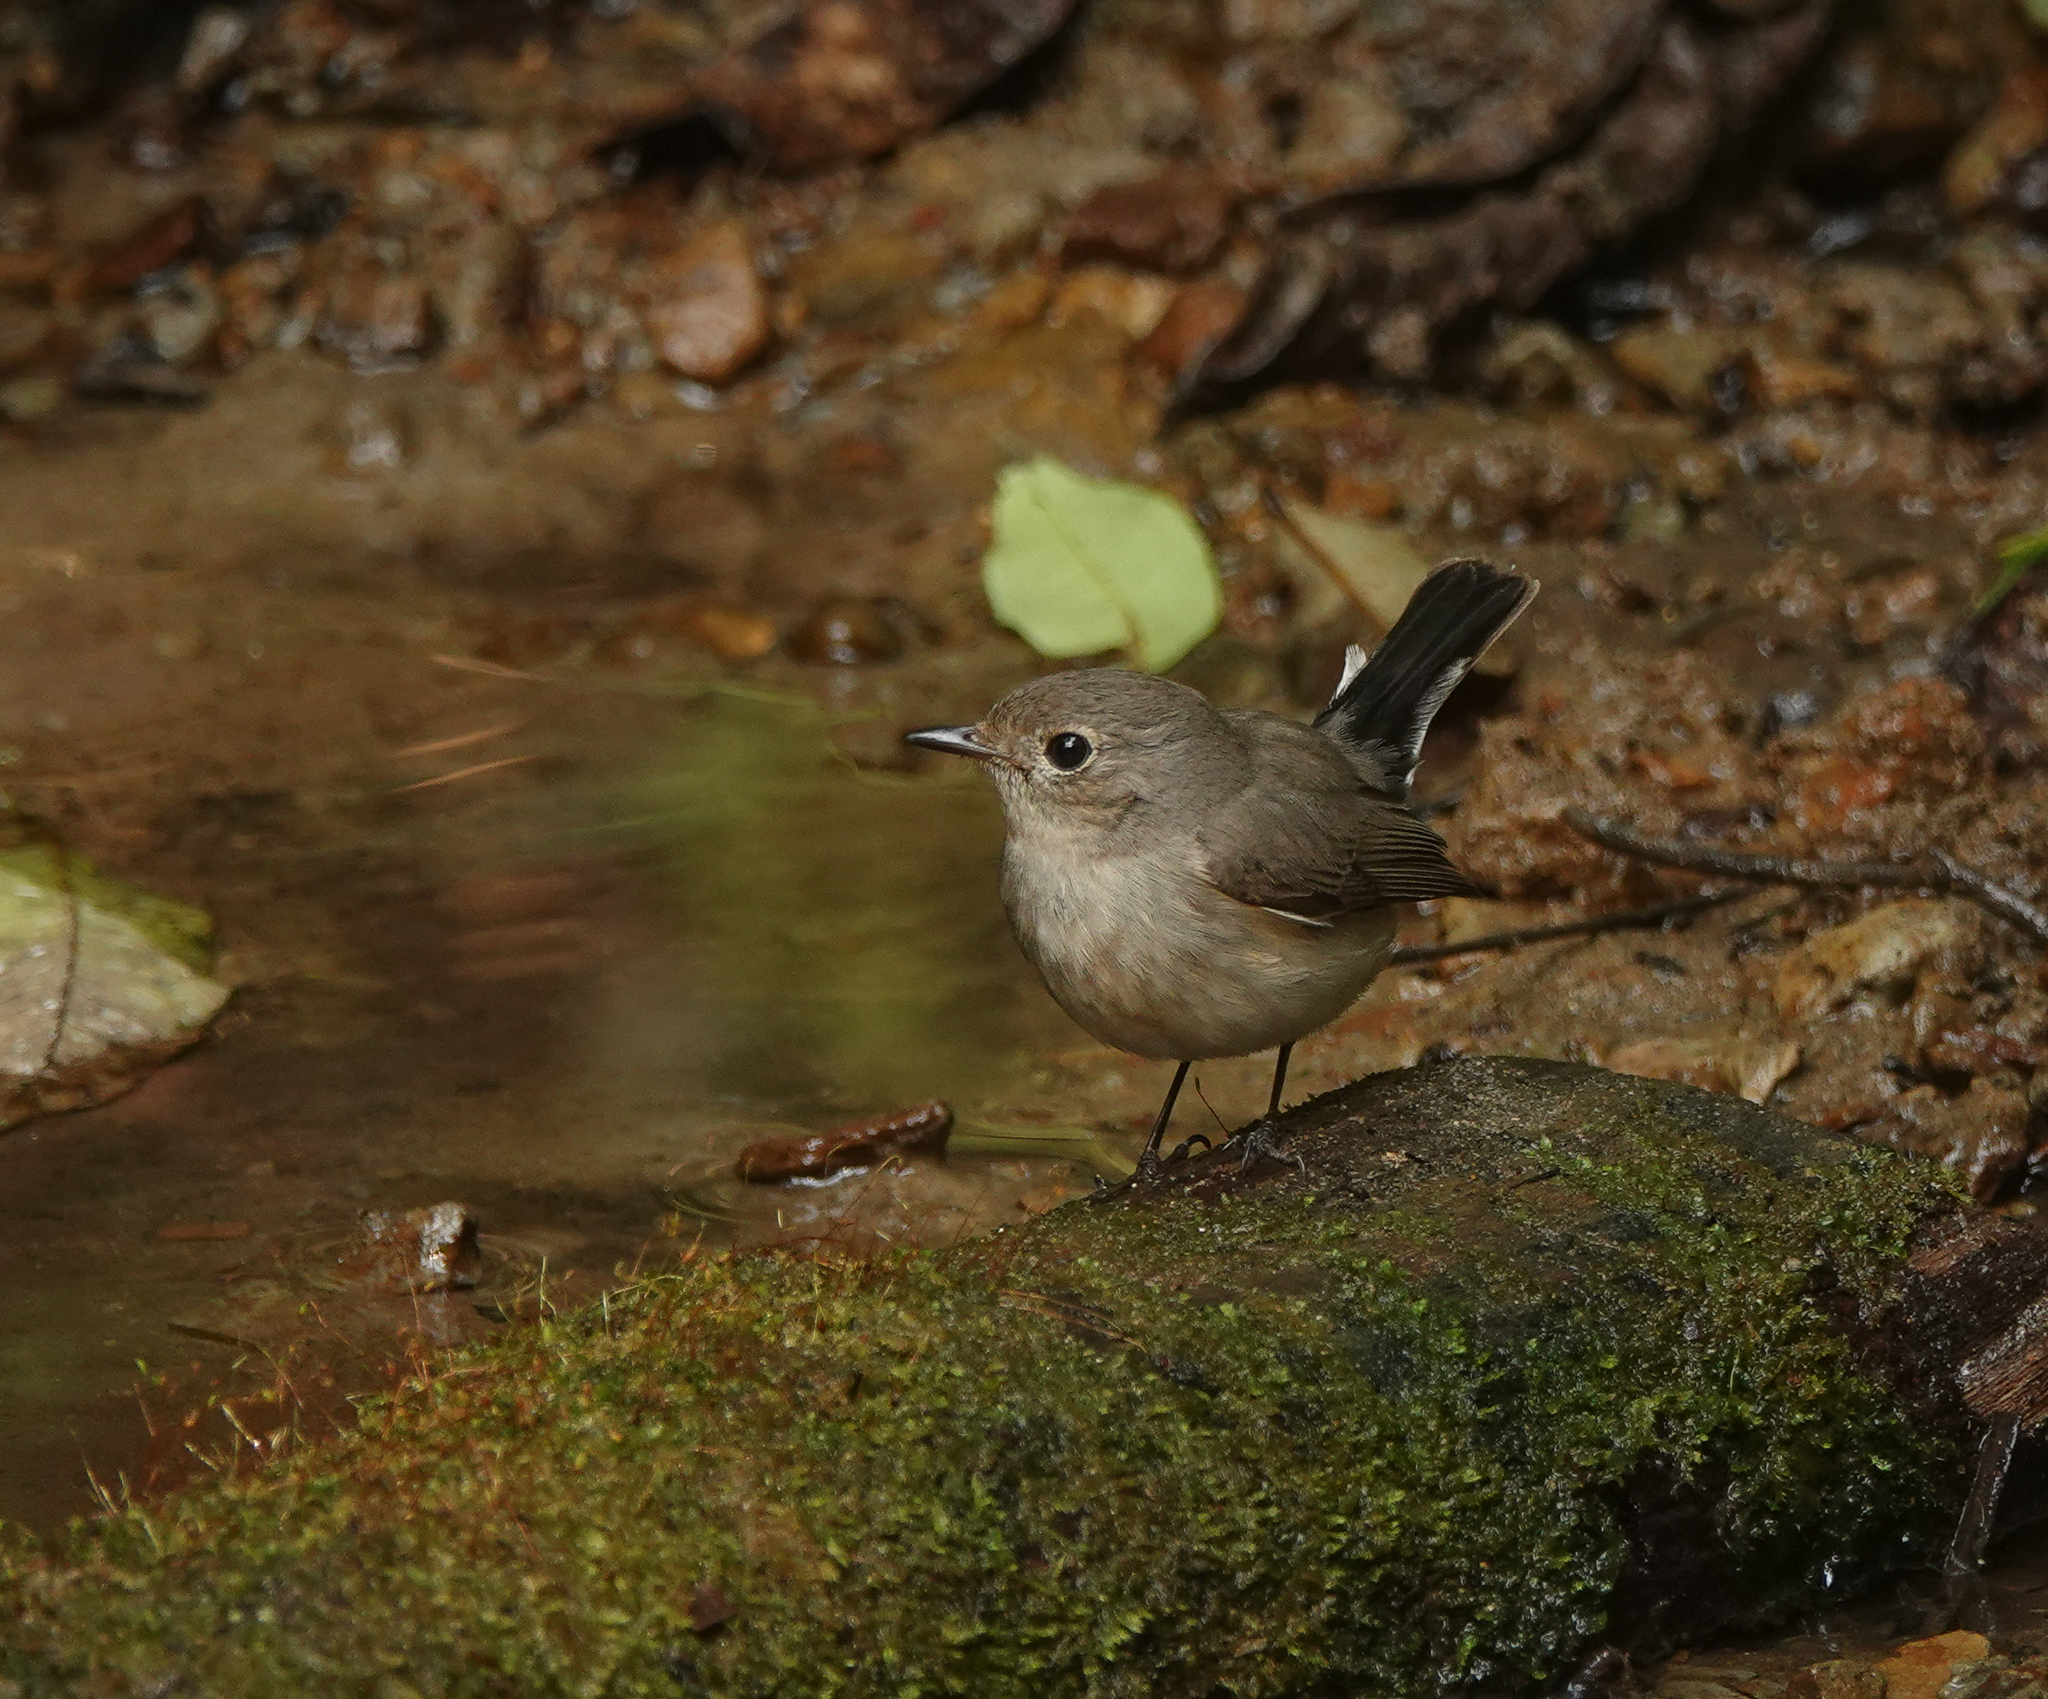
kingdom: Animalia
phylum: Chordata
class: Aves
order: Passeriformes
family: Muscicapidae
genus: Ficedula
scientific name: Ficedula albicilla
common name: Taiga flycatcher
